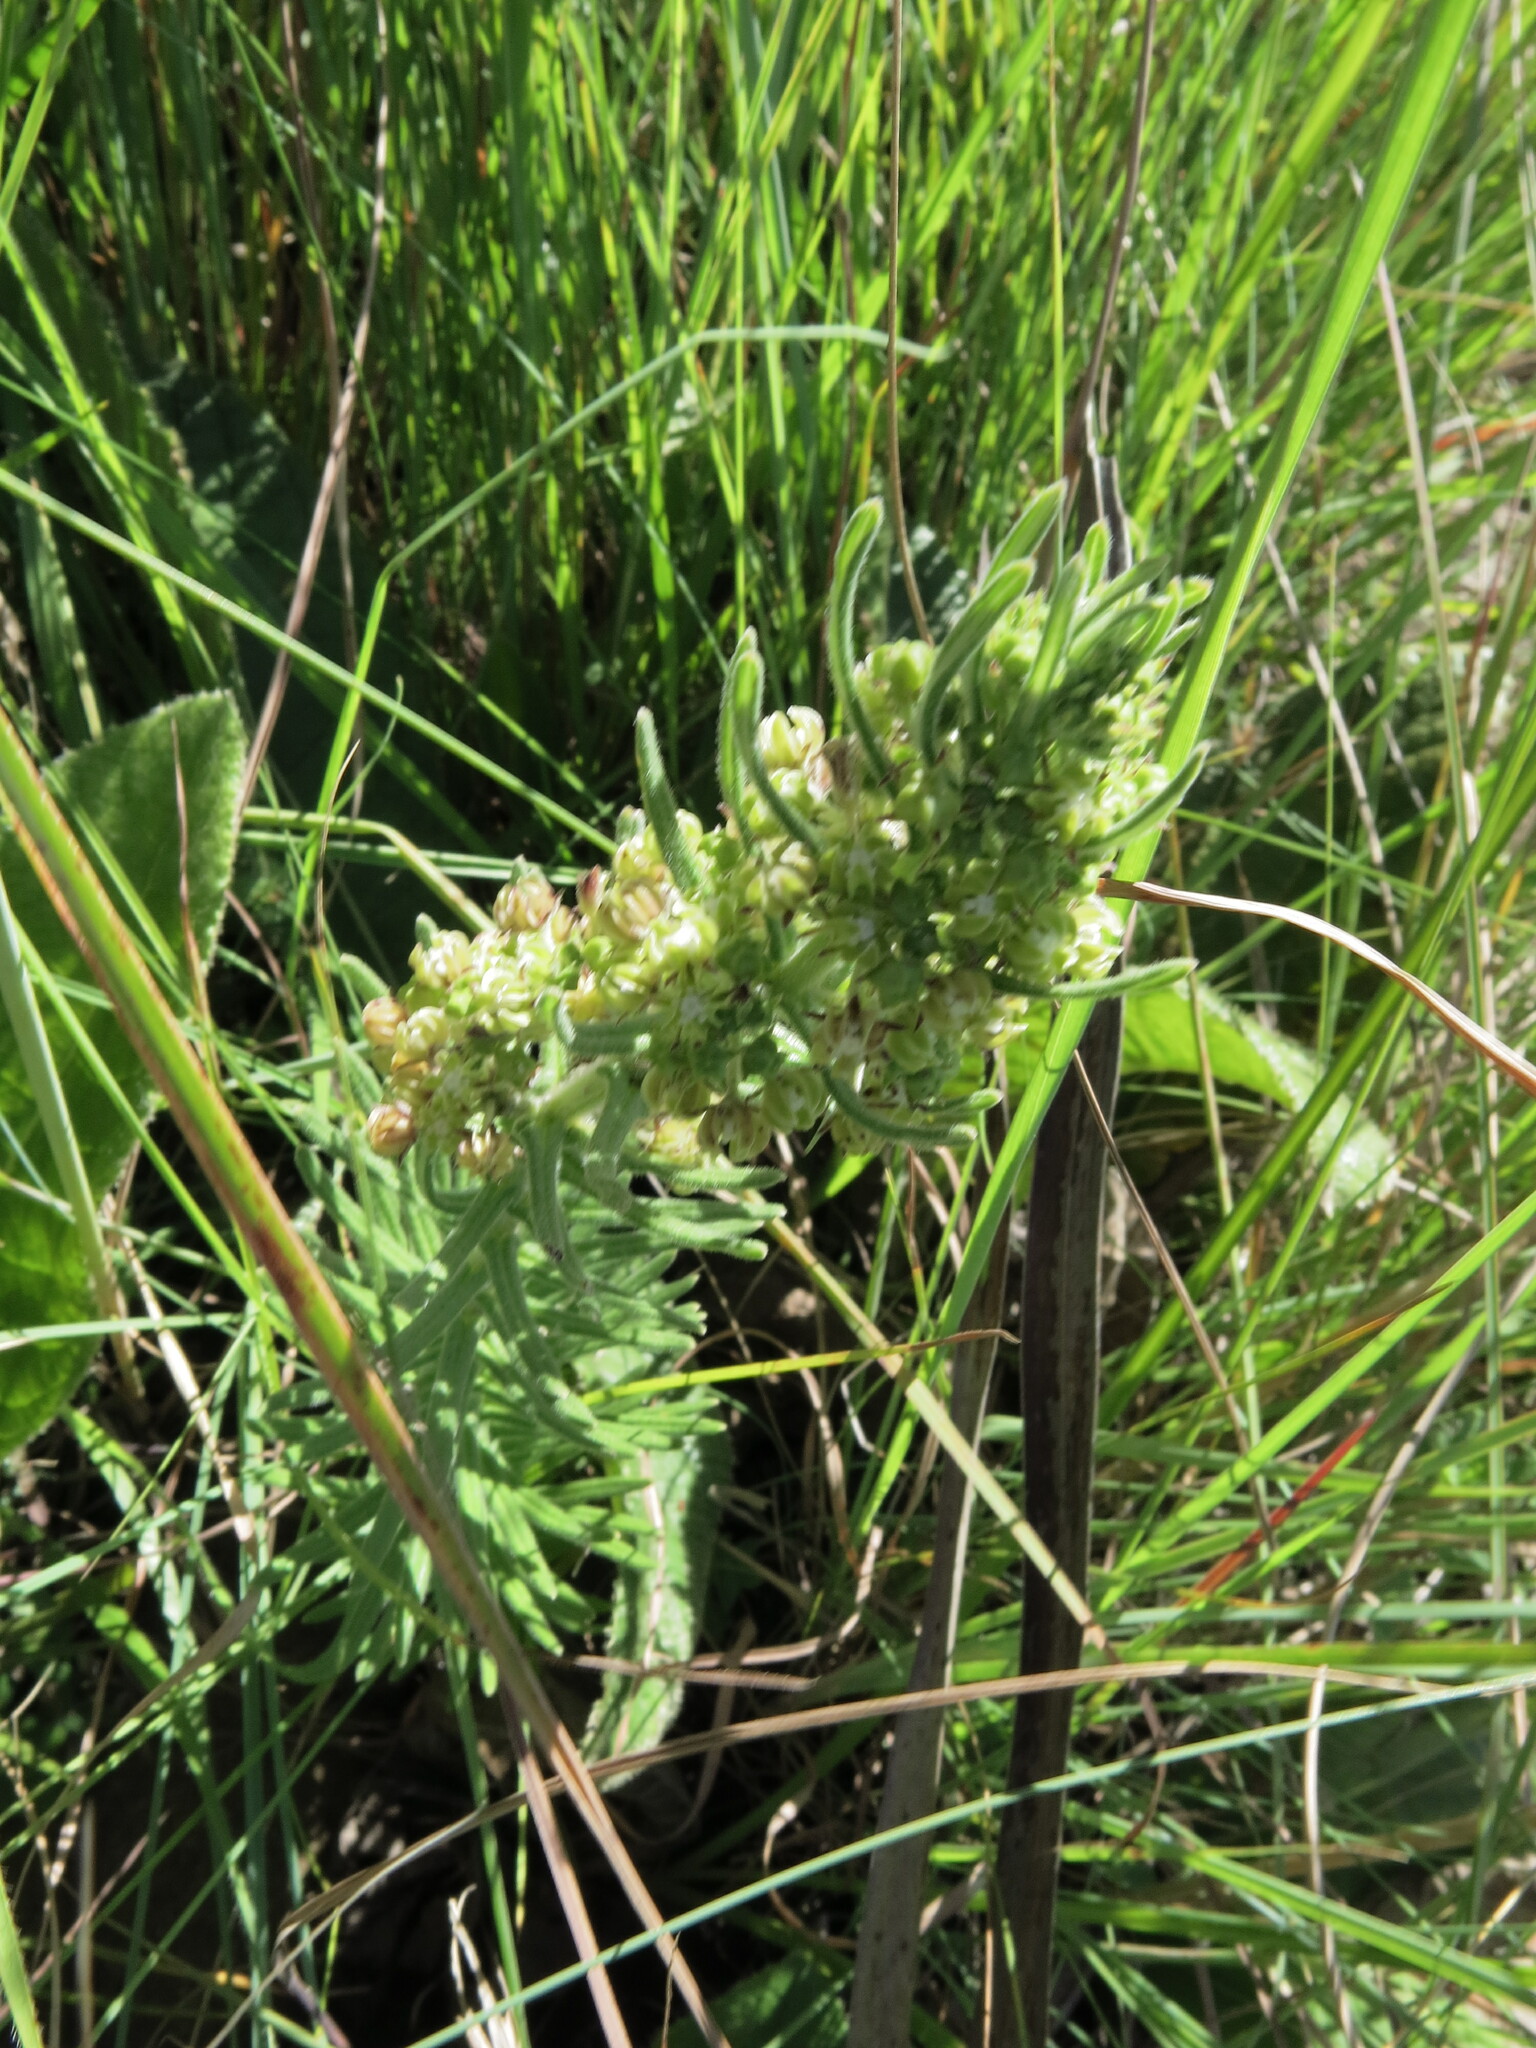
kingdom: Plantae
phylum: Tracheophyta
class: Magnoliopsida
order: Gentianales
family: Apocynaceae
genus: Schizoglossum
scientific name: Schizoglossum bidens
